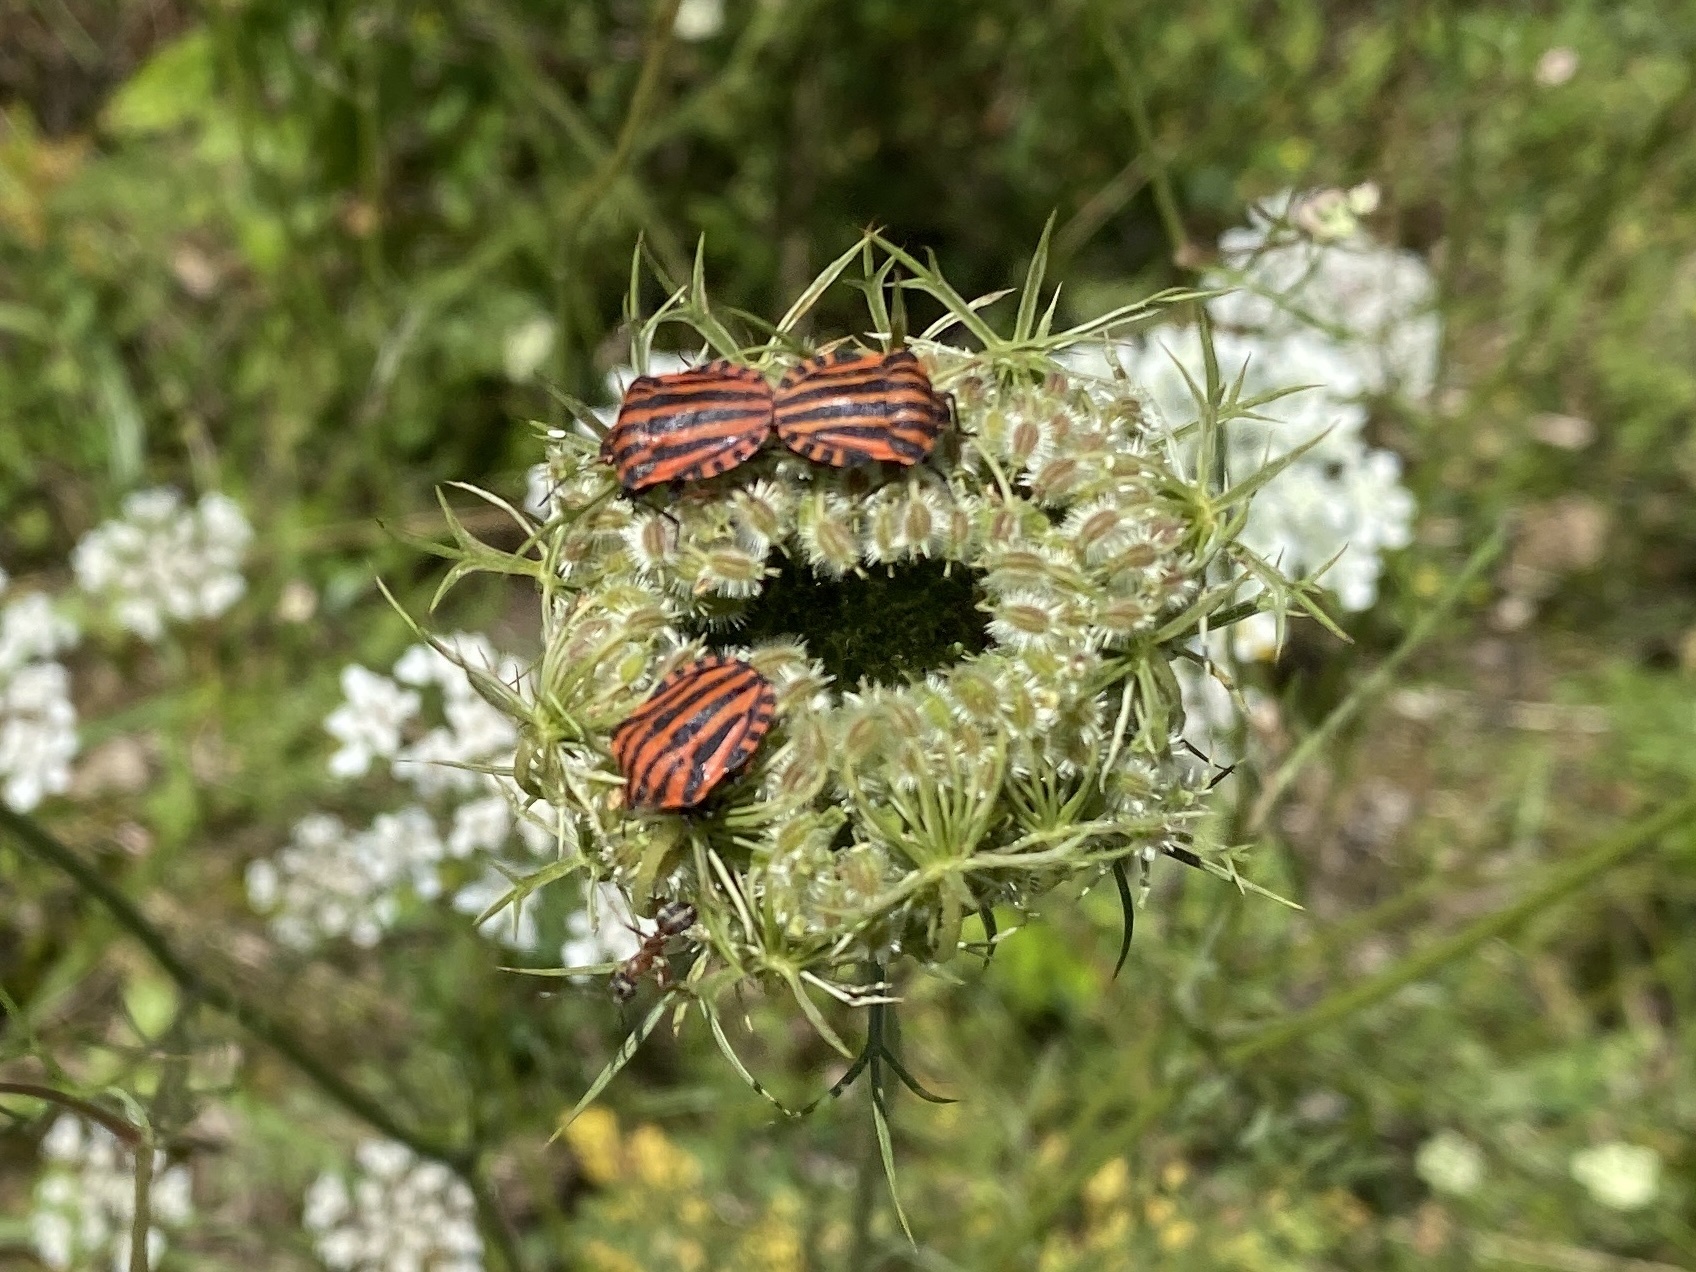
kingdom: Animalia
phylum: Arthropoda
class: Insecta
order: Hemiptera
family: Pentatomidae
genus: Graphosoma
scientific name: Graphosoma italicum
